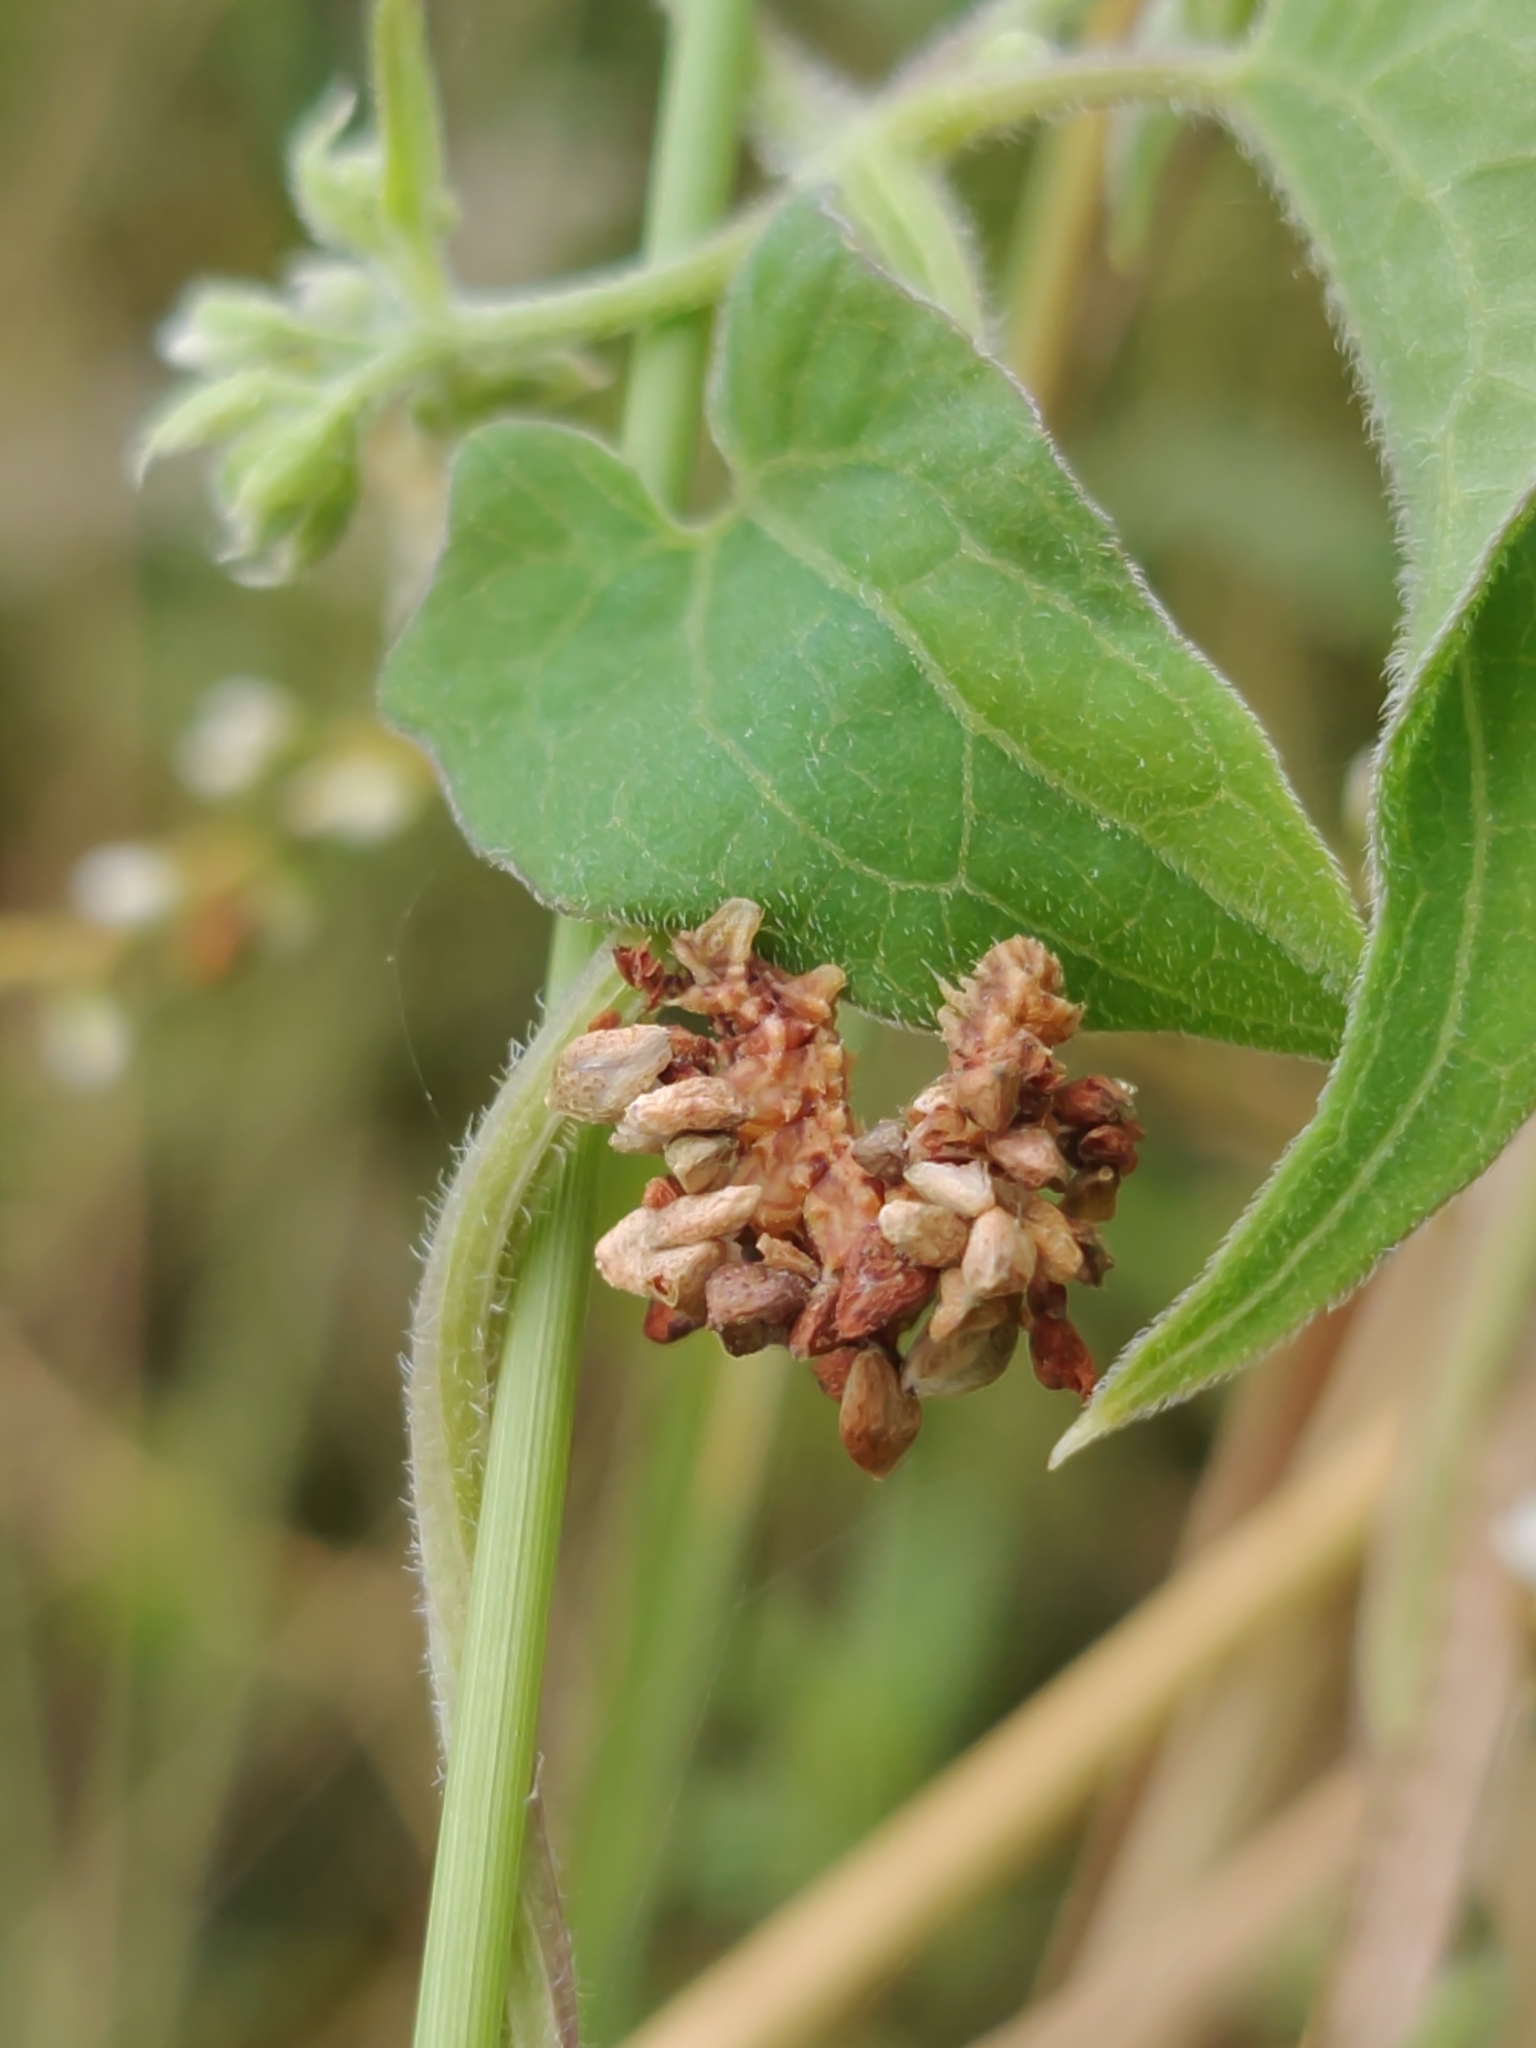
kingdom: Animalia
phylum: Arthropoda
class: Insecta
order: Lepidoptera
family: Geometridae
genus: Synchlora
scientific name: Synchlora frondaria
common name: Southern emerald
